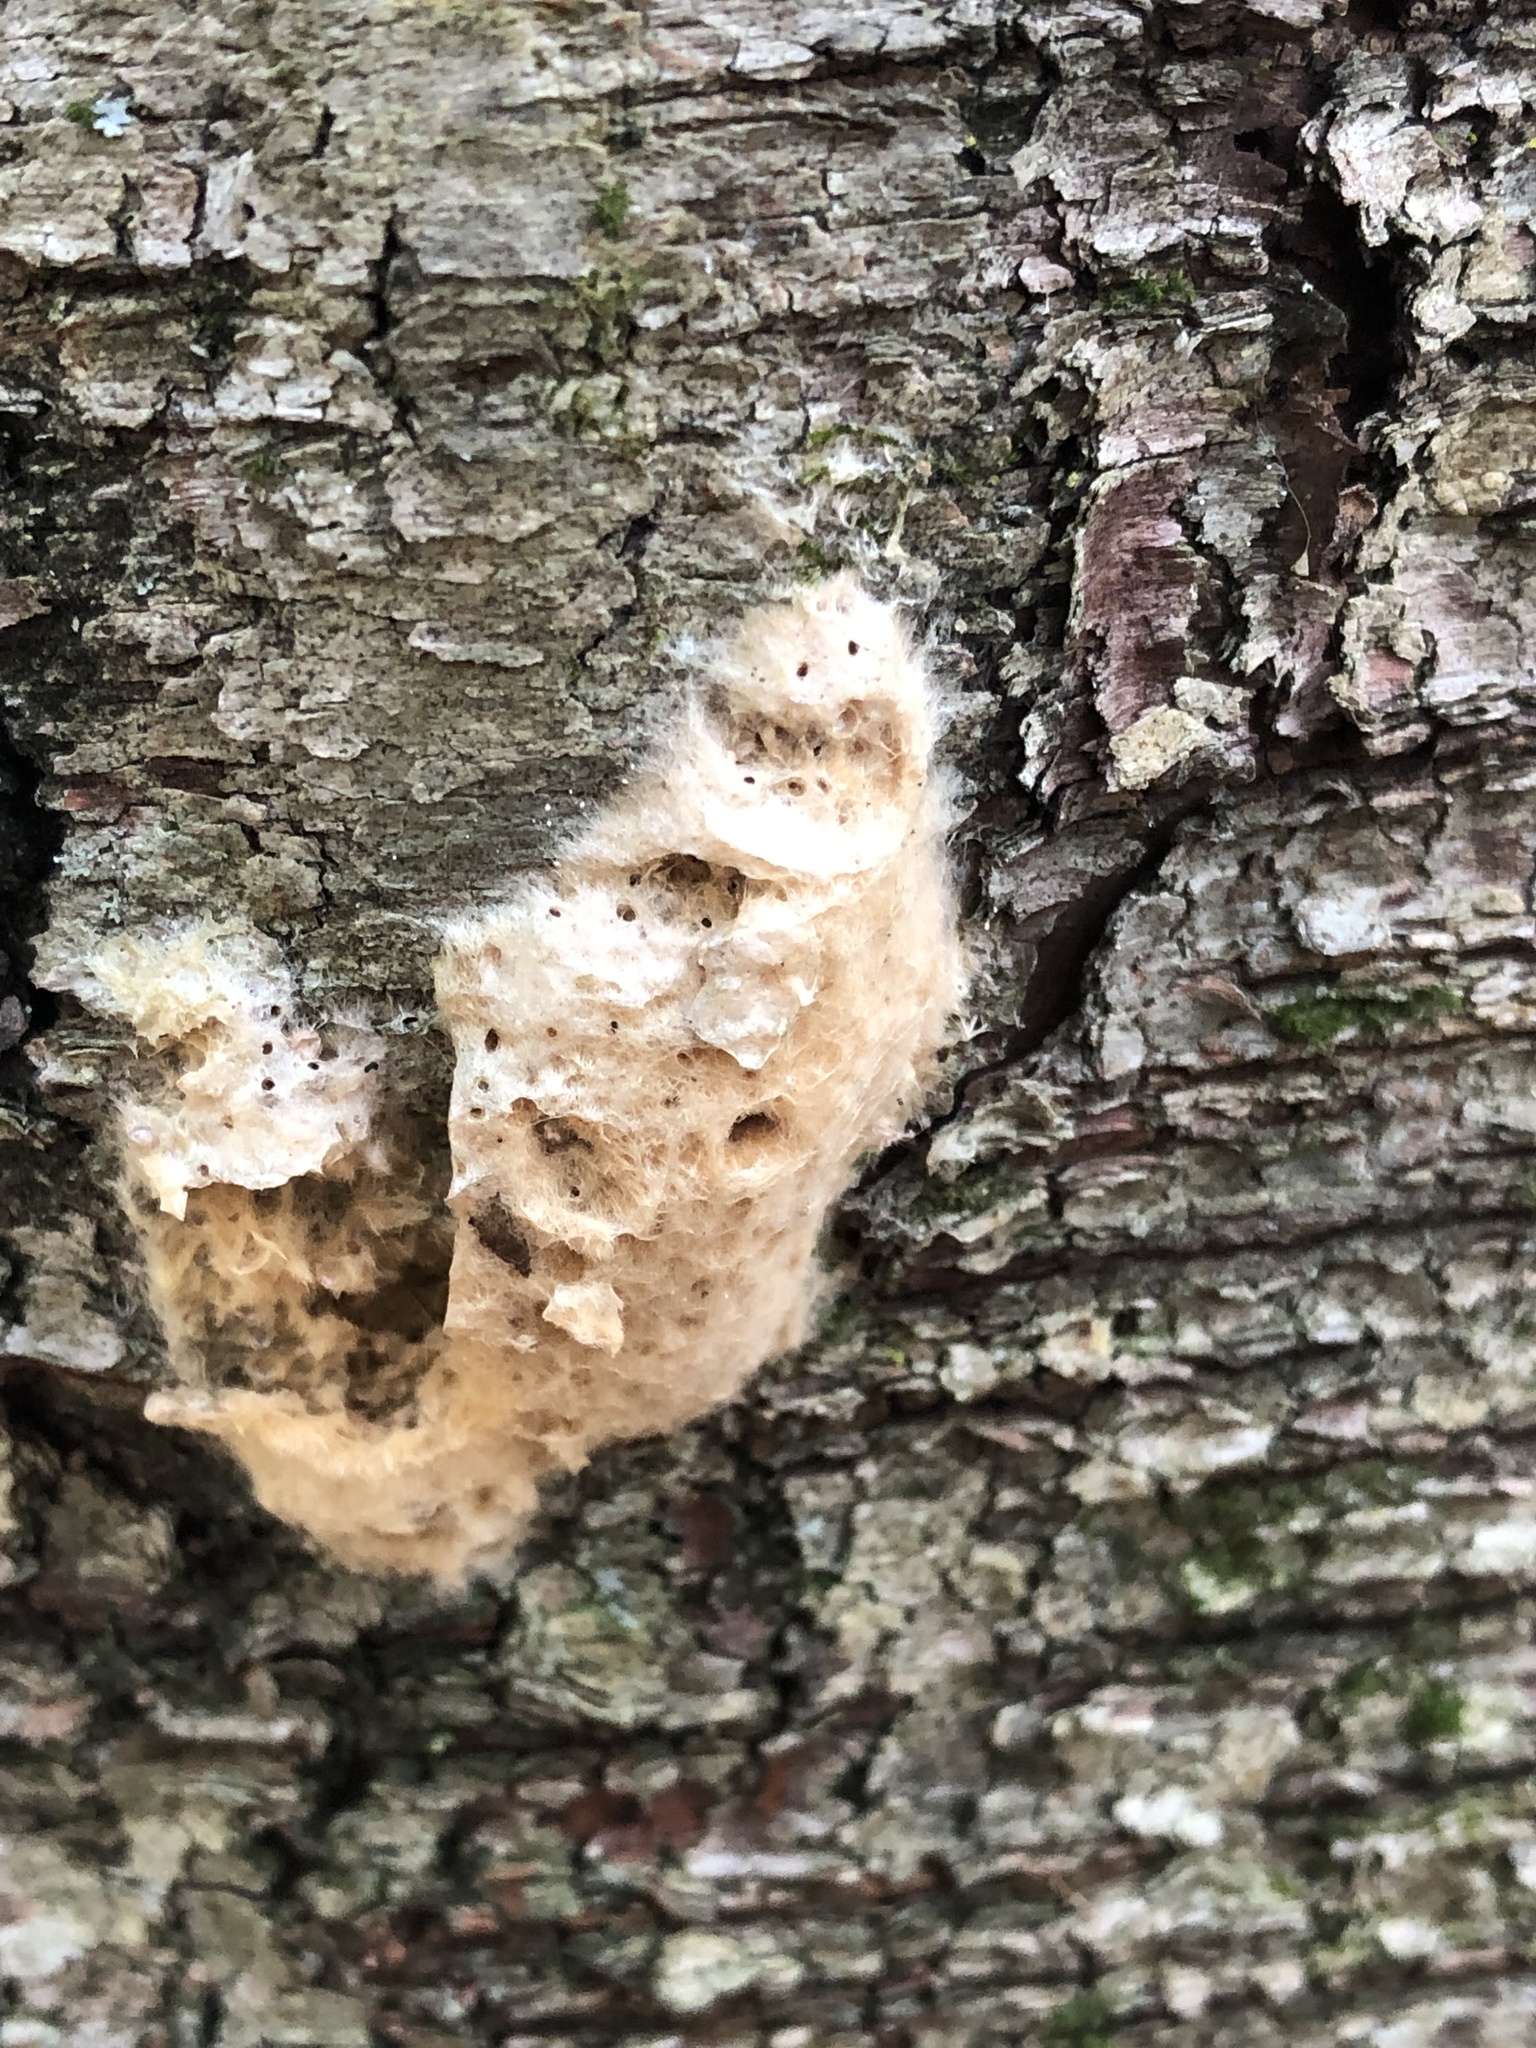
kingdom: Animalia
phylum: Arthropoda
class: Insecta
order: Lepidoptera
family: Erebidae
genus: Lymantria
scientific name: Lymantria dispar
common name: Gypsy moth
